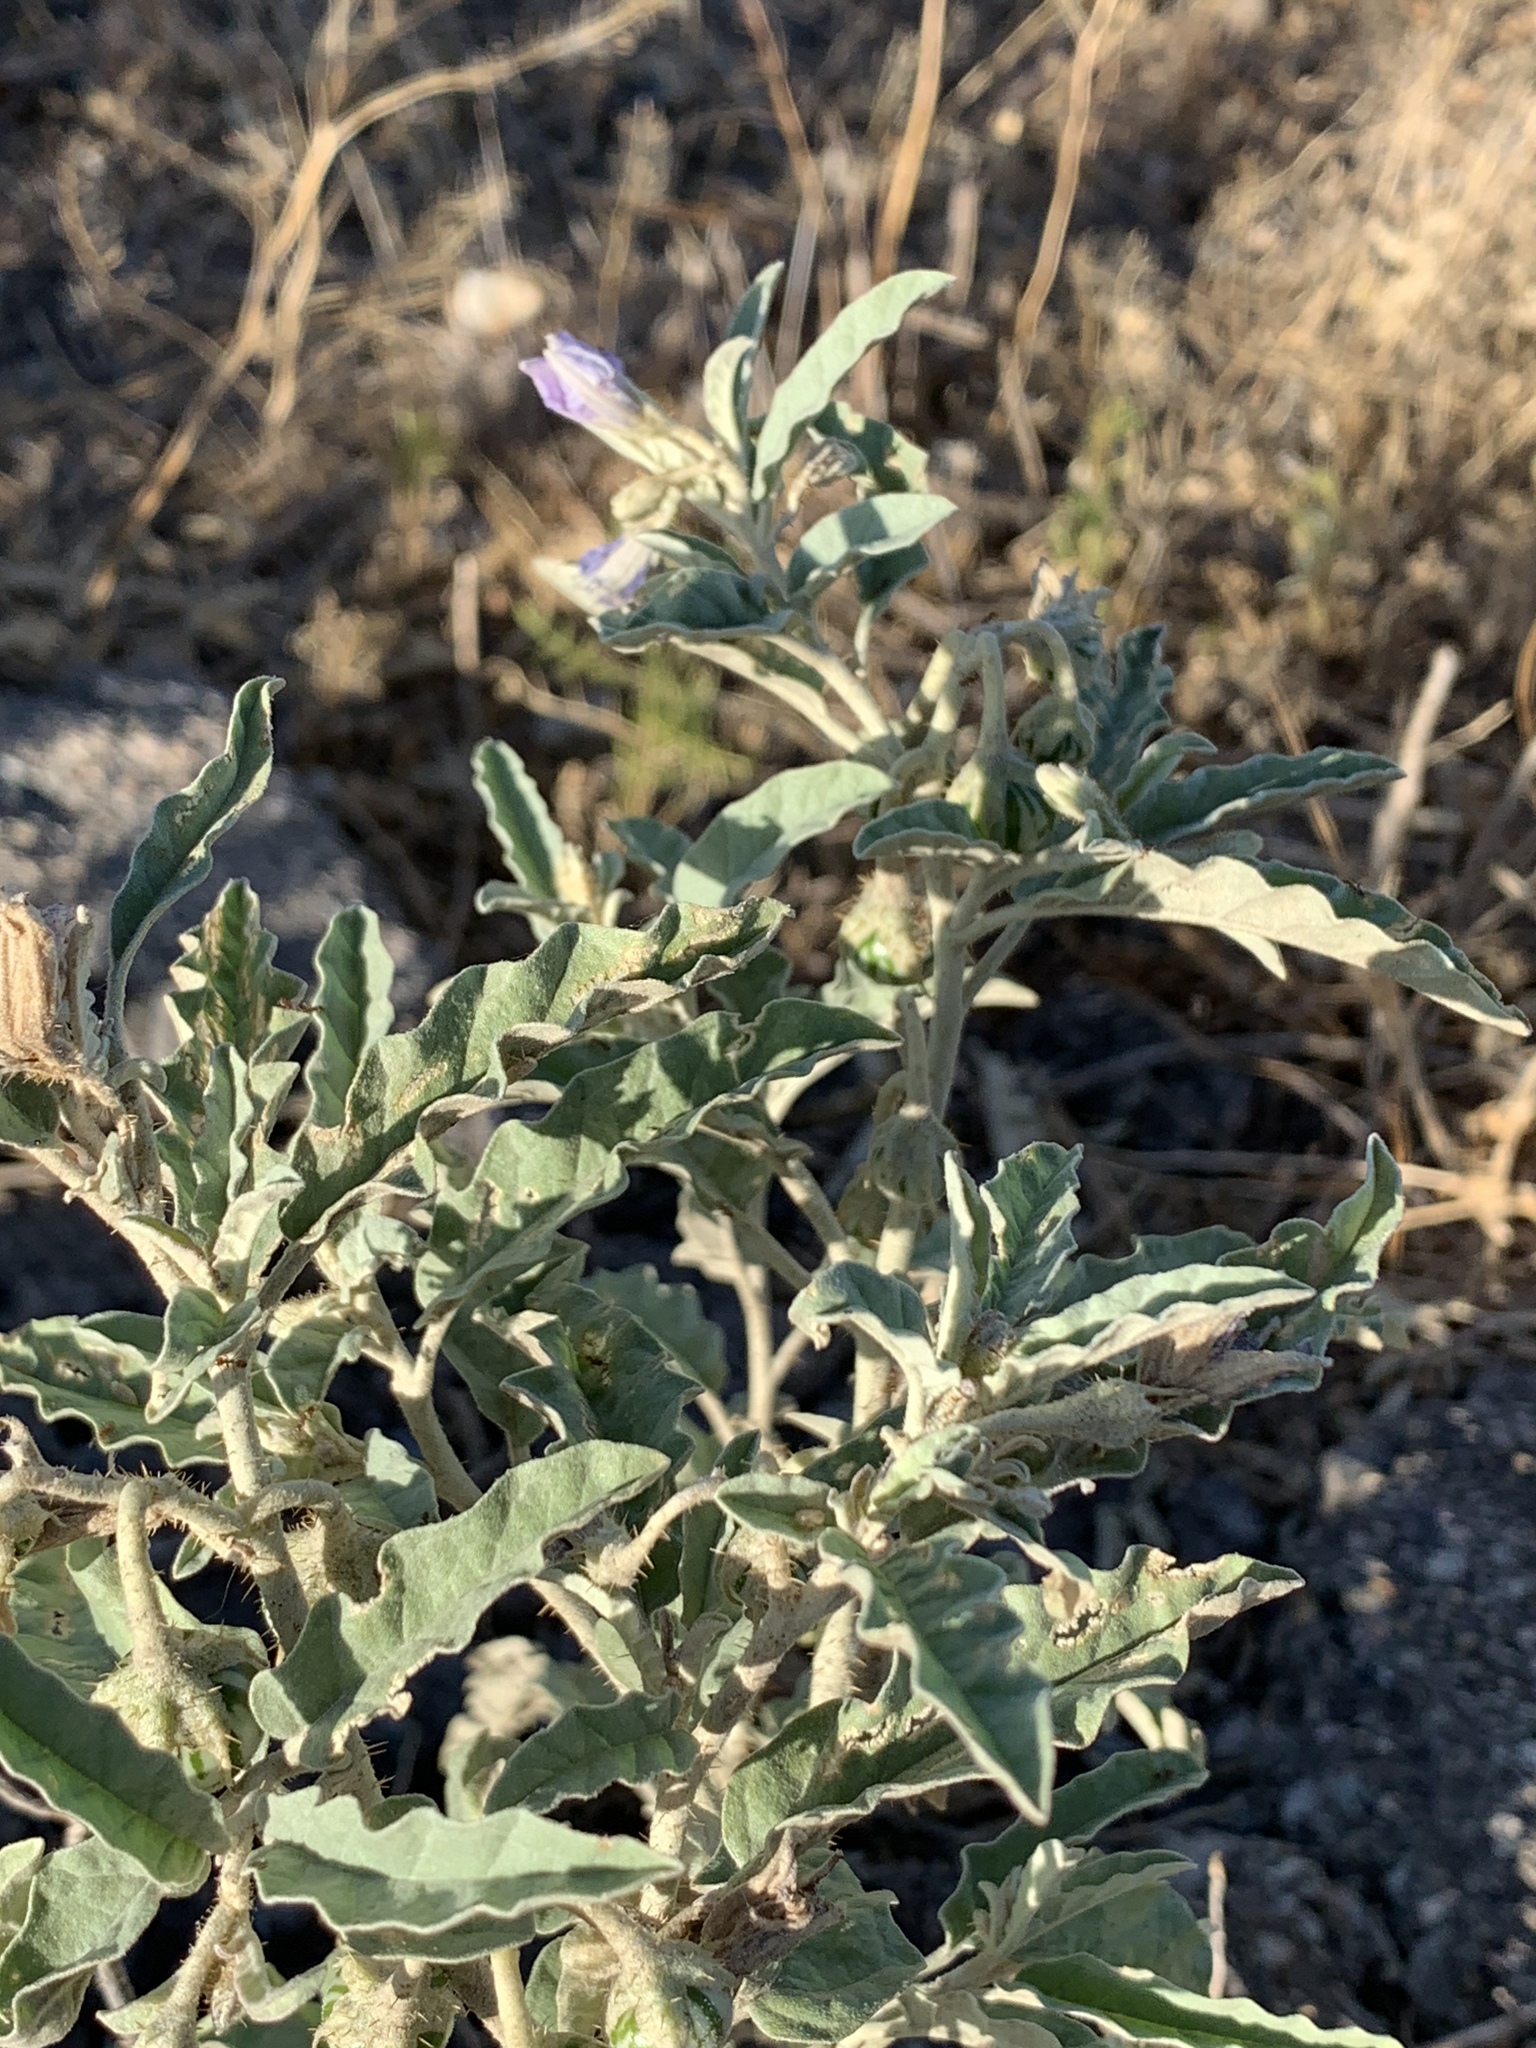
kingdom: Plantae
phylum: Tracheophyta
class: Magnoliopsida
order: Solanales
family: Solanaceae
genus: Solanum
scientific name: Solanum elaeagnifolium
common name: Silverleaf nightshade
